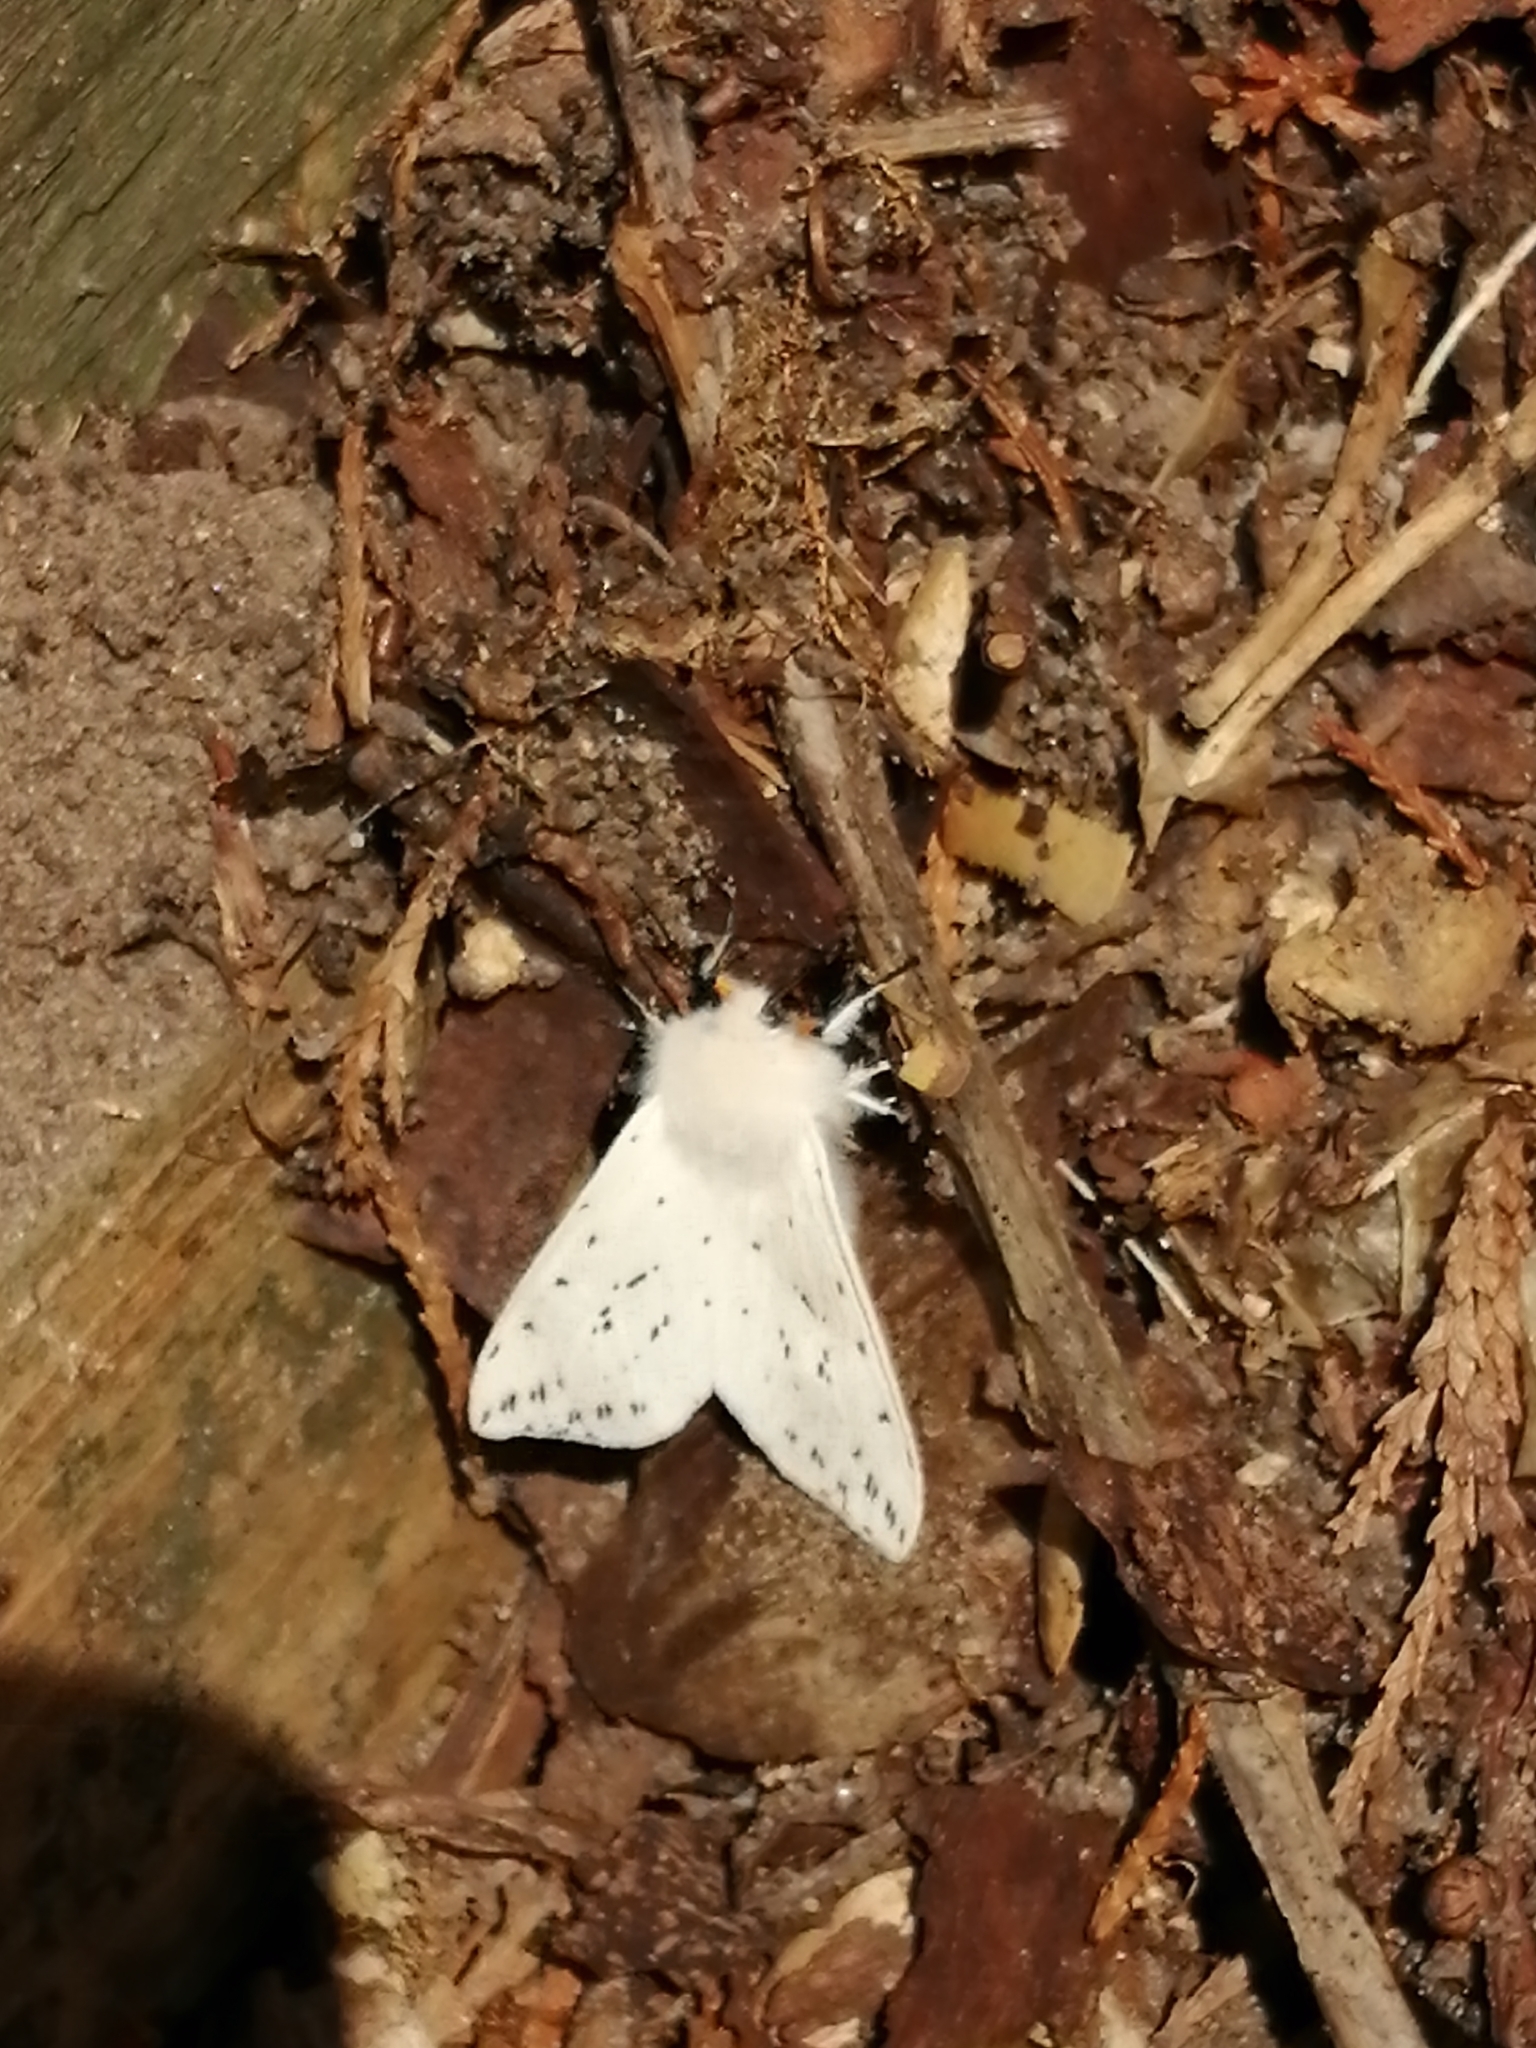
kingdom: Animalia
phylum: Arthropoda
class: Insecta
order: Lepidoptera
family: Erebidae
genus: Spilosoma
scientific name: Spilosoma lubricipeda
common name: White ermine
